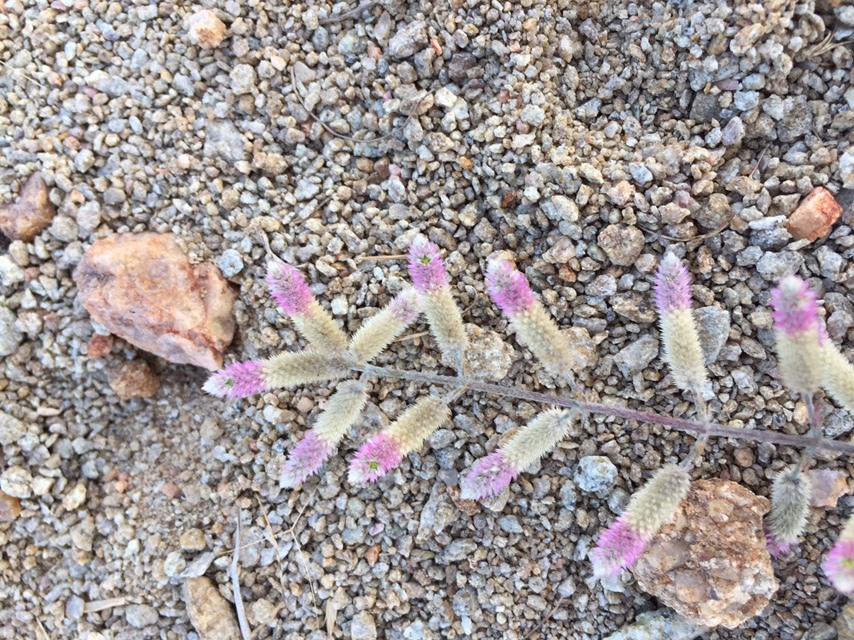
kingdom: Plantae
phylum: Tracheophyta
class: Magnoliopsida
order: Caryophyllales
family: Amaranthaceae
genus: Celosia
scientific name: Celosia argentea
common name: Feather cockscomb
